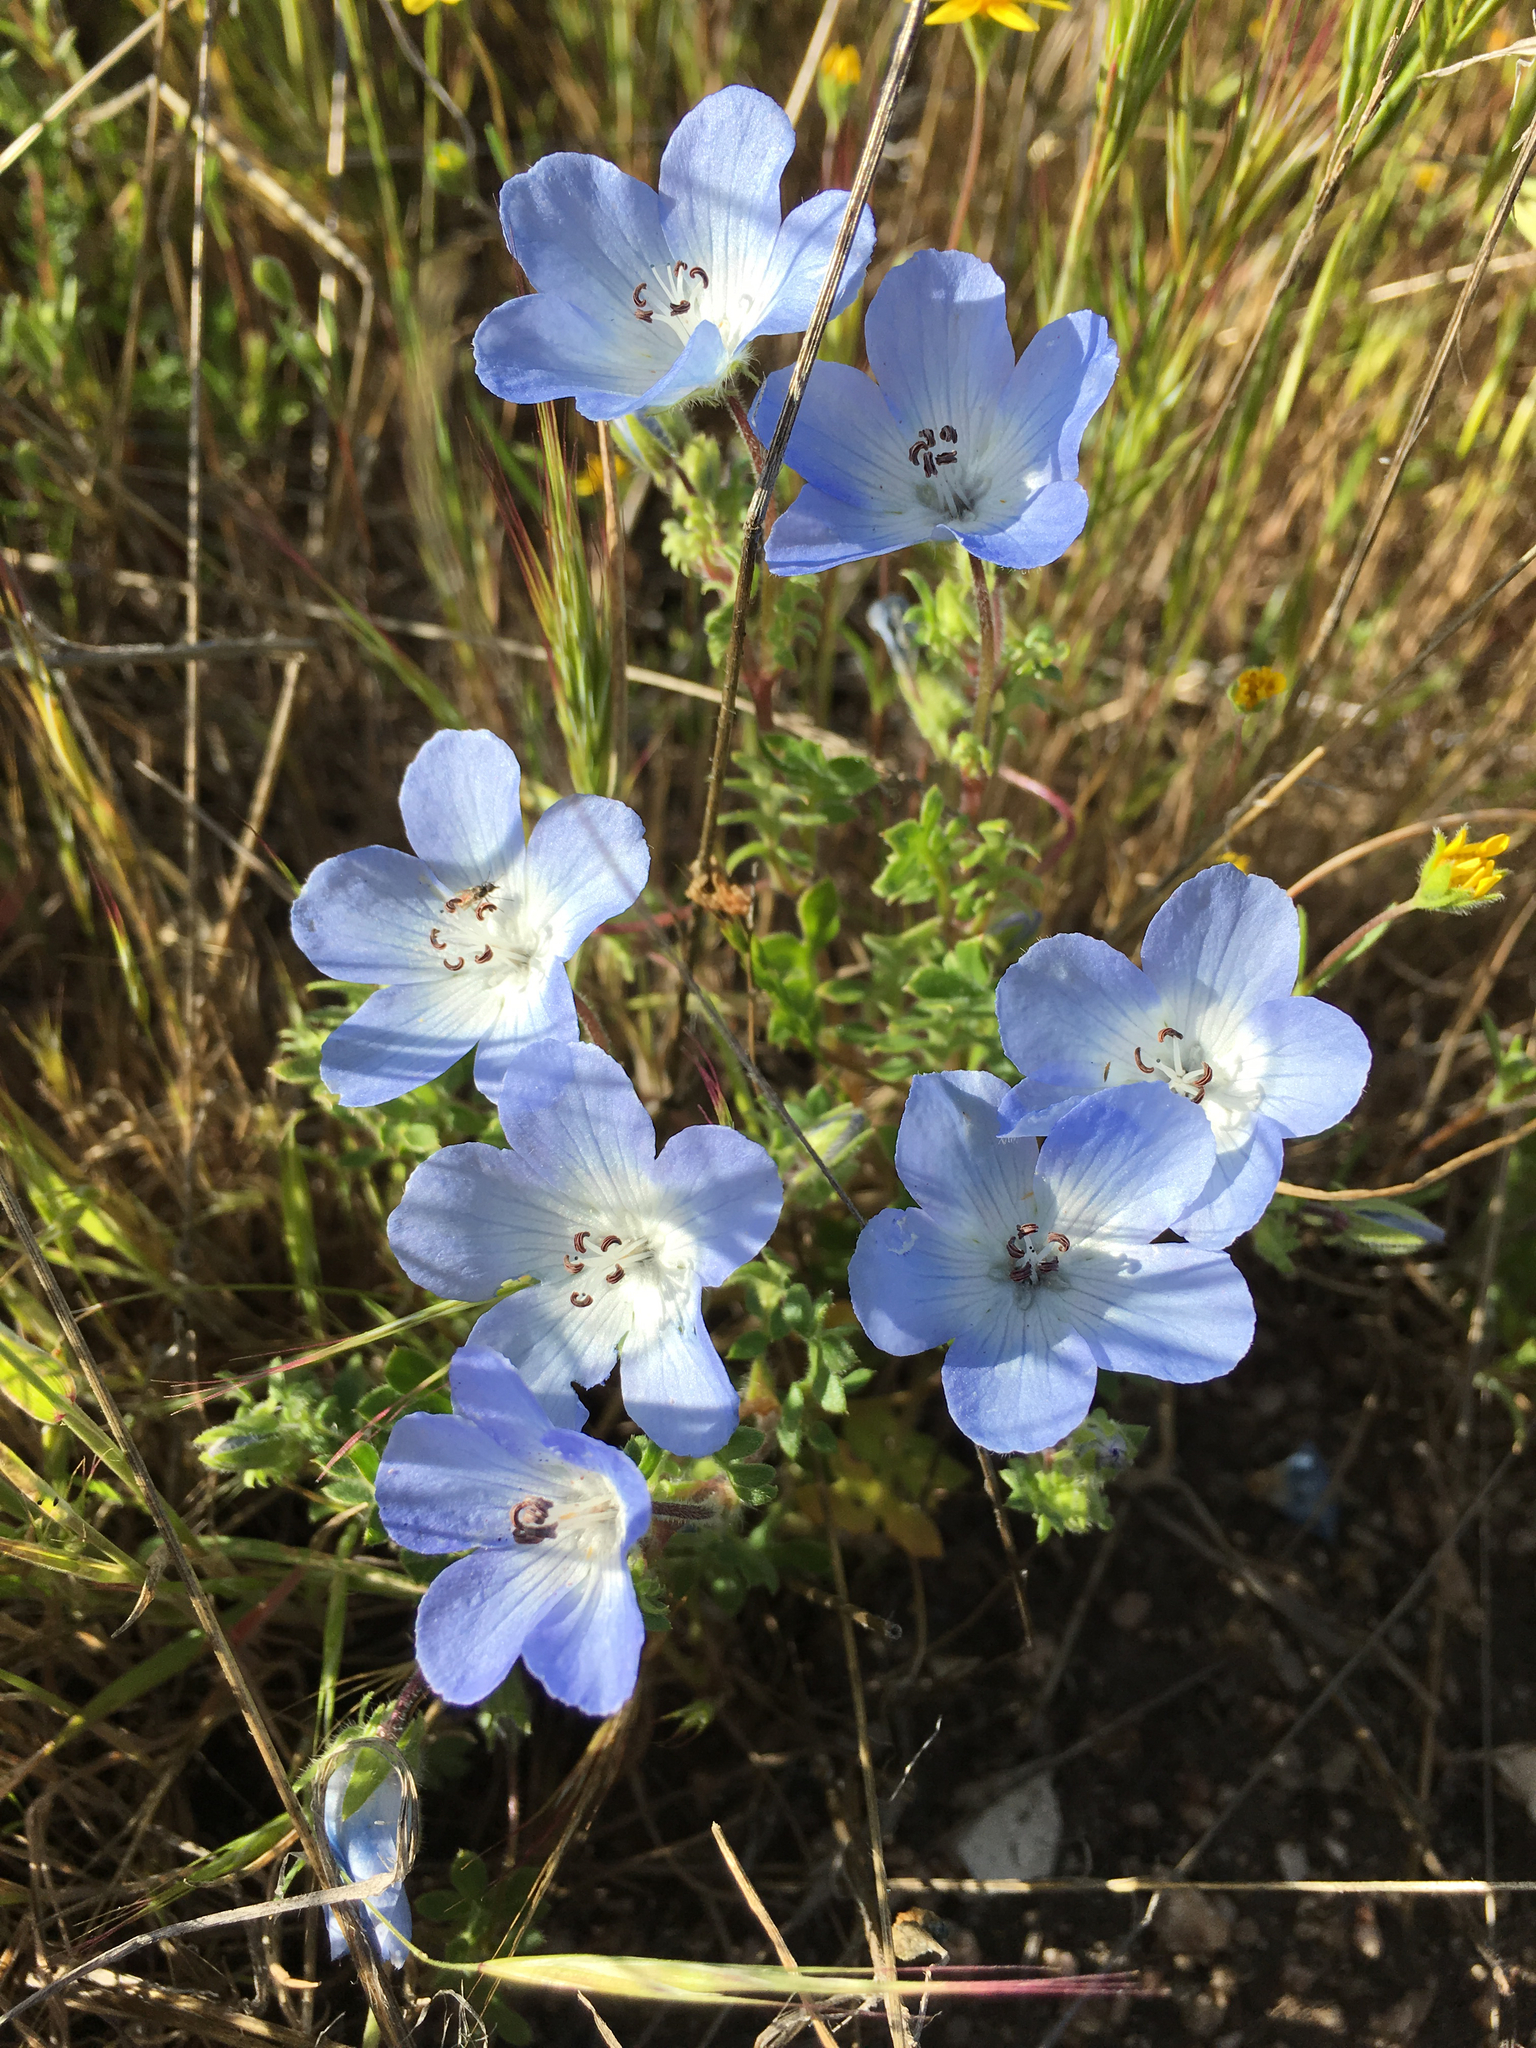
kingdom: Plantae
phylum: Tracheophyta
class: Magnoliopsida
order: Boraginales
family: Hydrophyllaceae
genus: Nemophila
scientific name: Nemophila menziesii
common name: Baby's-blue-eyes
